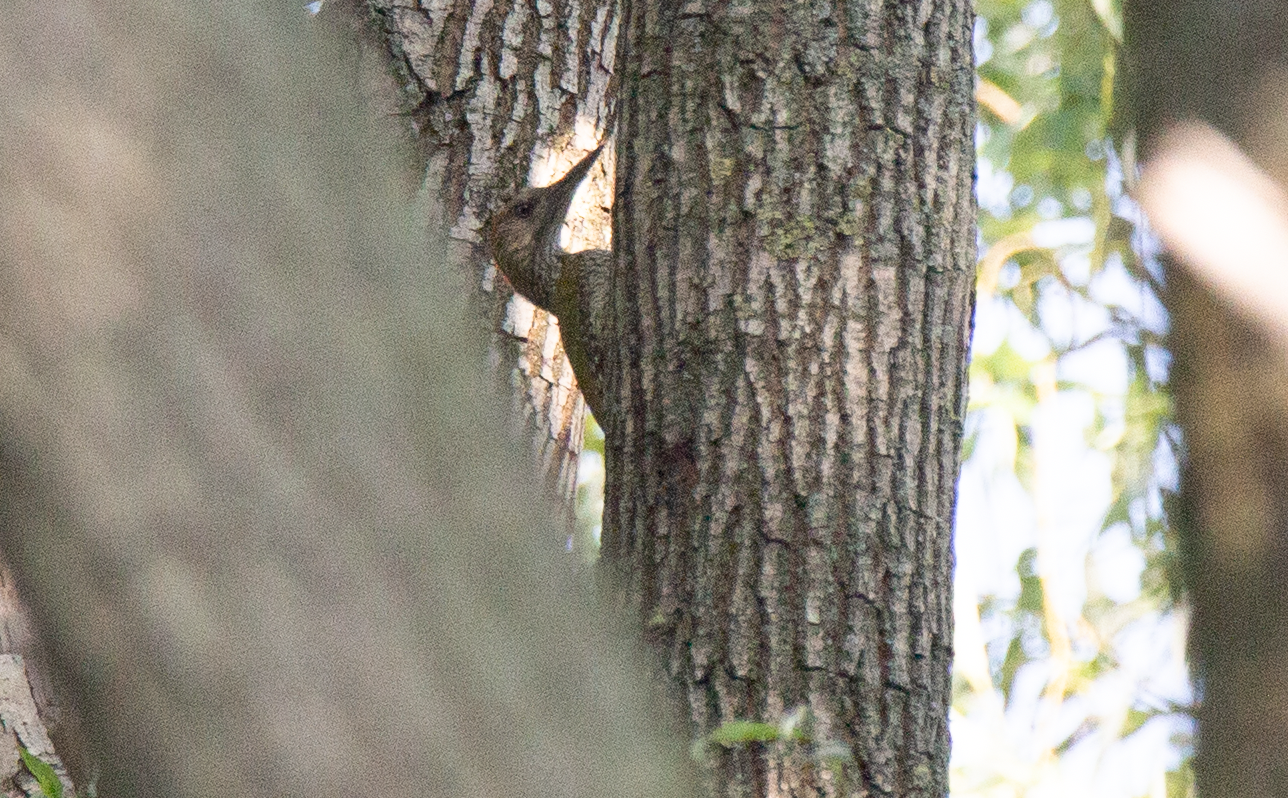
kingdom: Animalia
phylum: Chordata
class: Aves
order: Piciformes
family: Picidae
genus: Picus
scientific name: Picus viridis
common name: European green woodpecker
